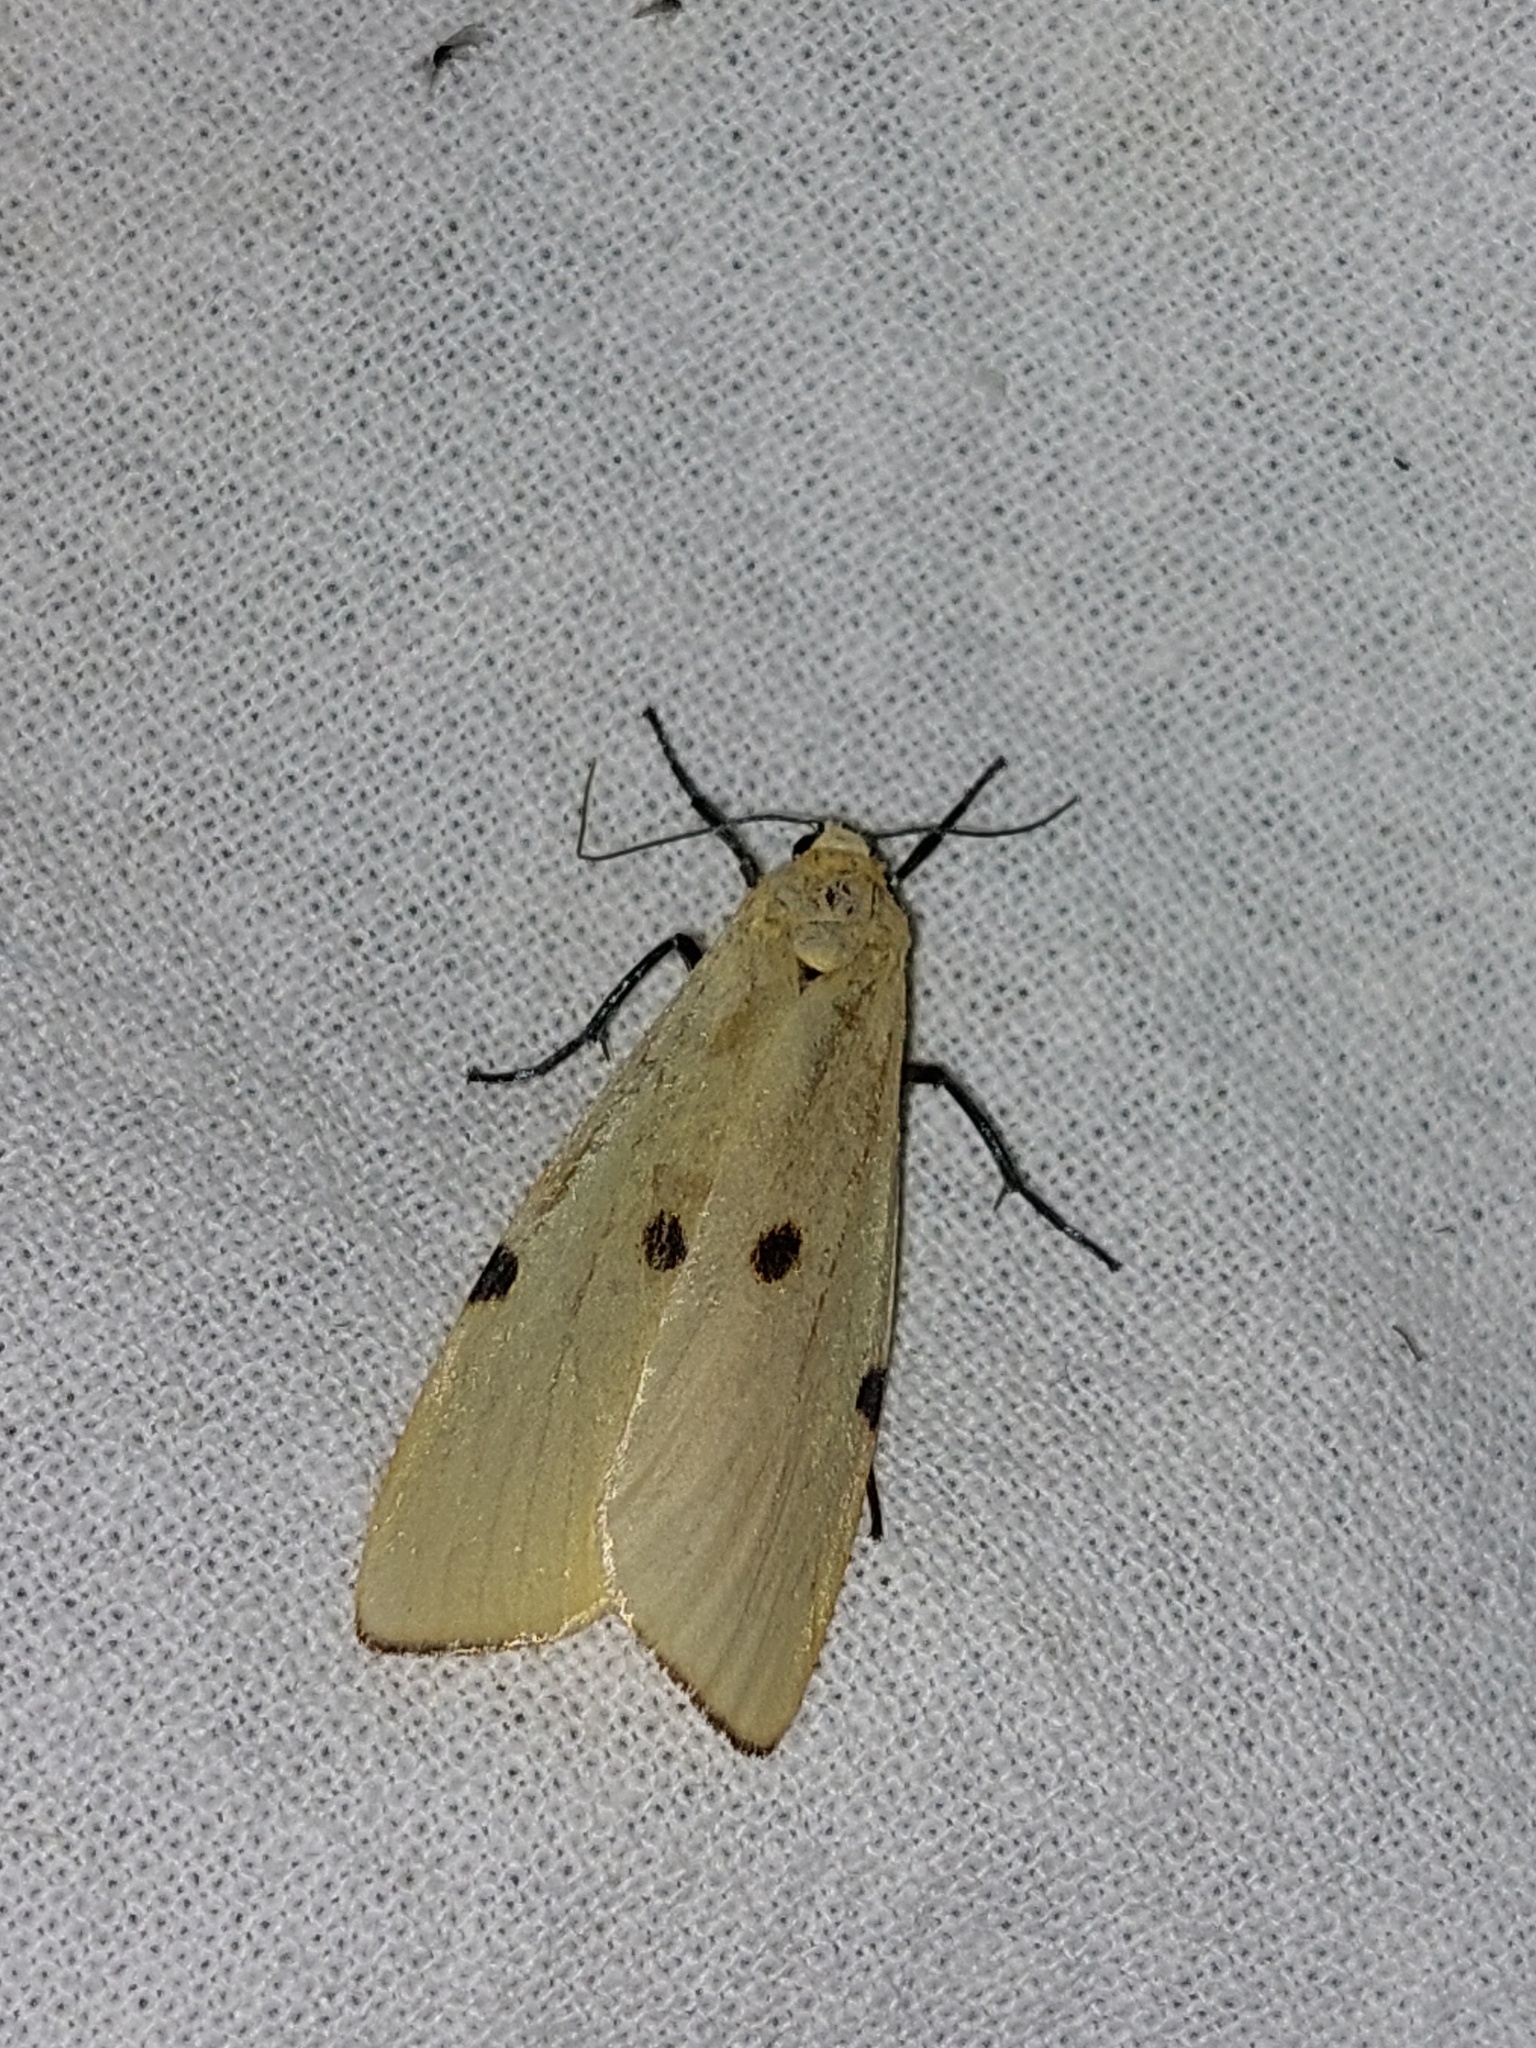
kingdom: Animalia
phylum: Arthropoda
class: Insecta
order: Lepidoptera
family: Erebidae
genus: Lithosia
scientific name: Lithosia quadra
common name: Four-spotted footman
